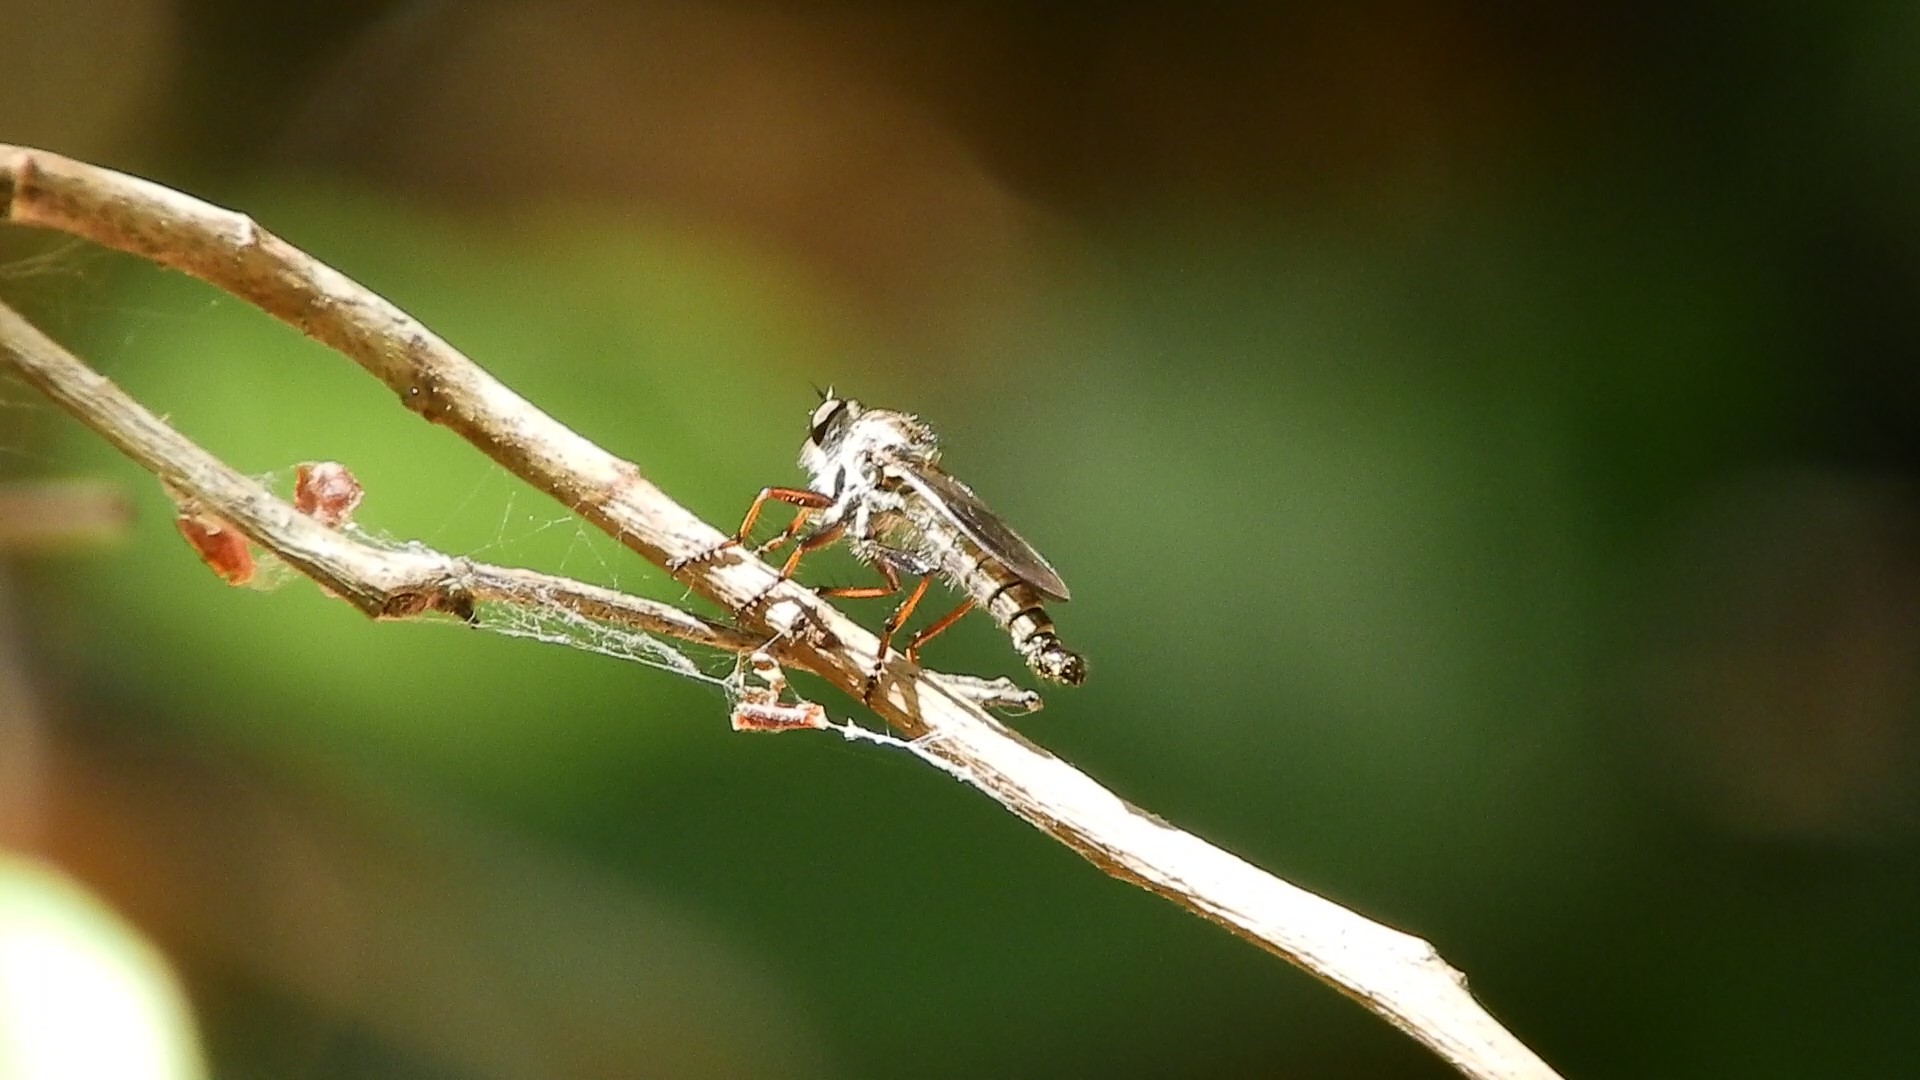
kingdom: Animalia
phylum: Arthropoda
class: Insecta
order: Diptera
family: Asilidae
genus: Neomochtherus
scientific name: Neomochtherus willistoni
